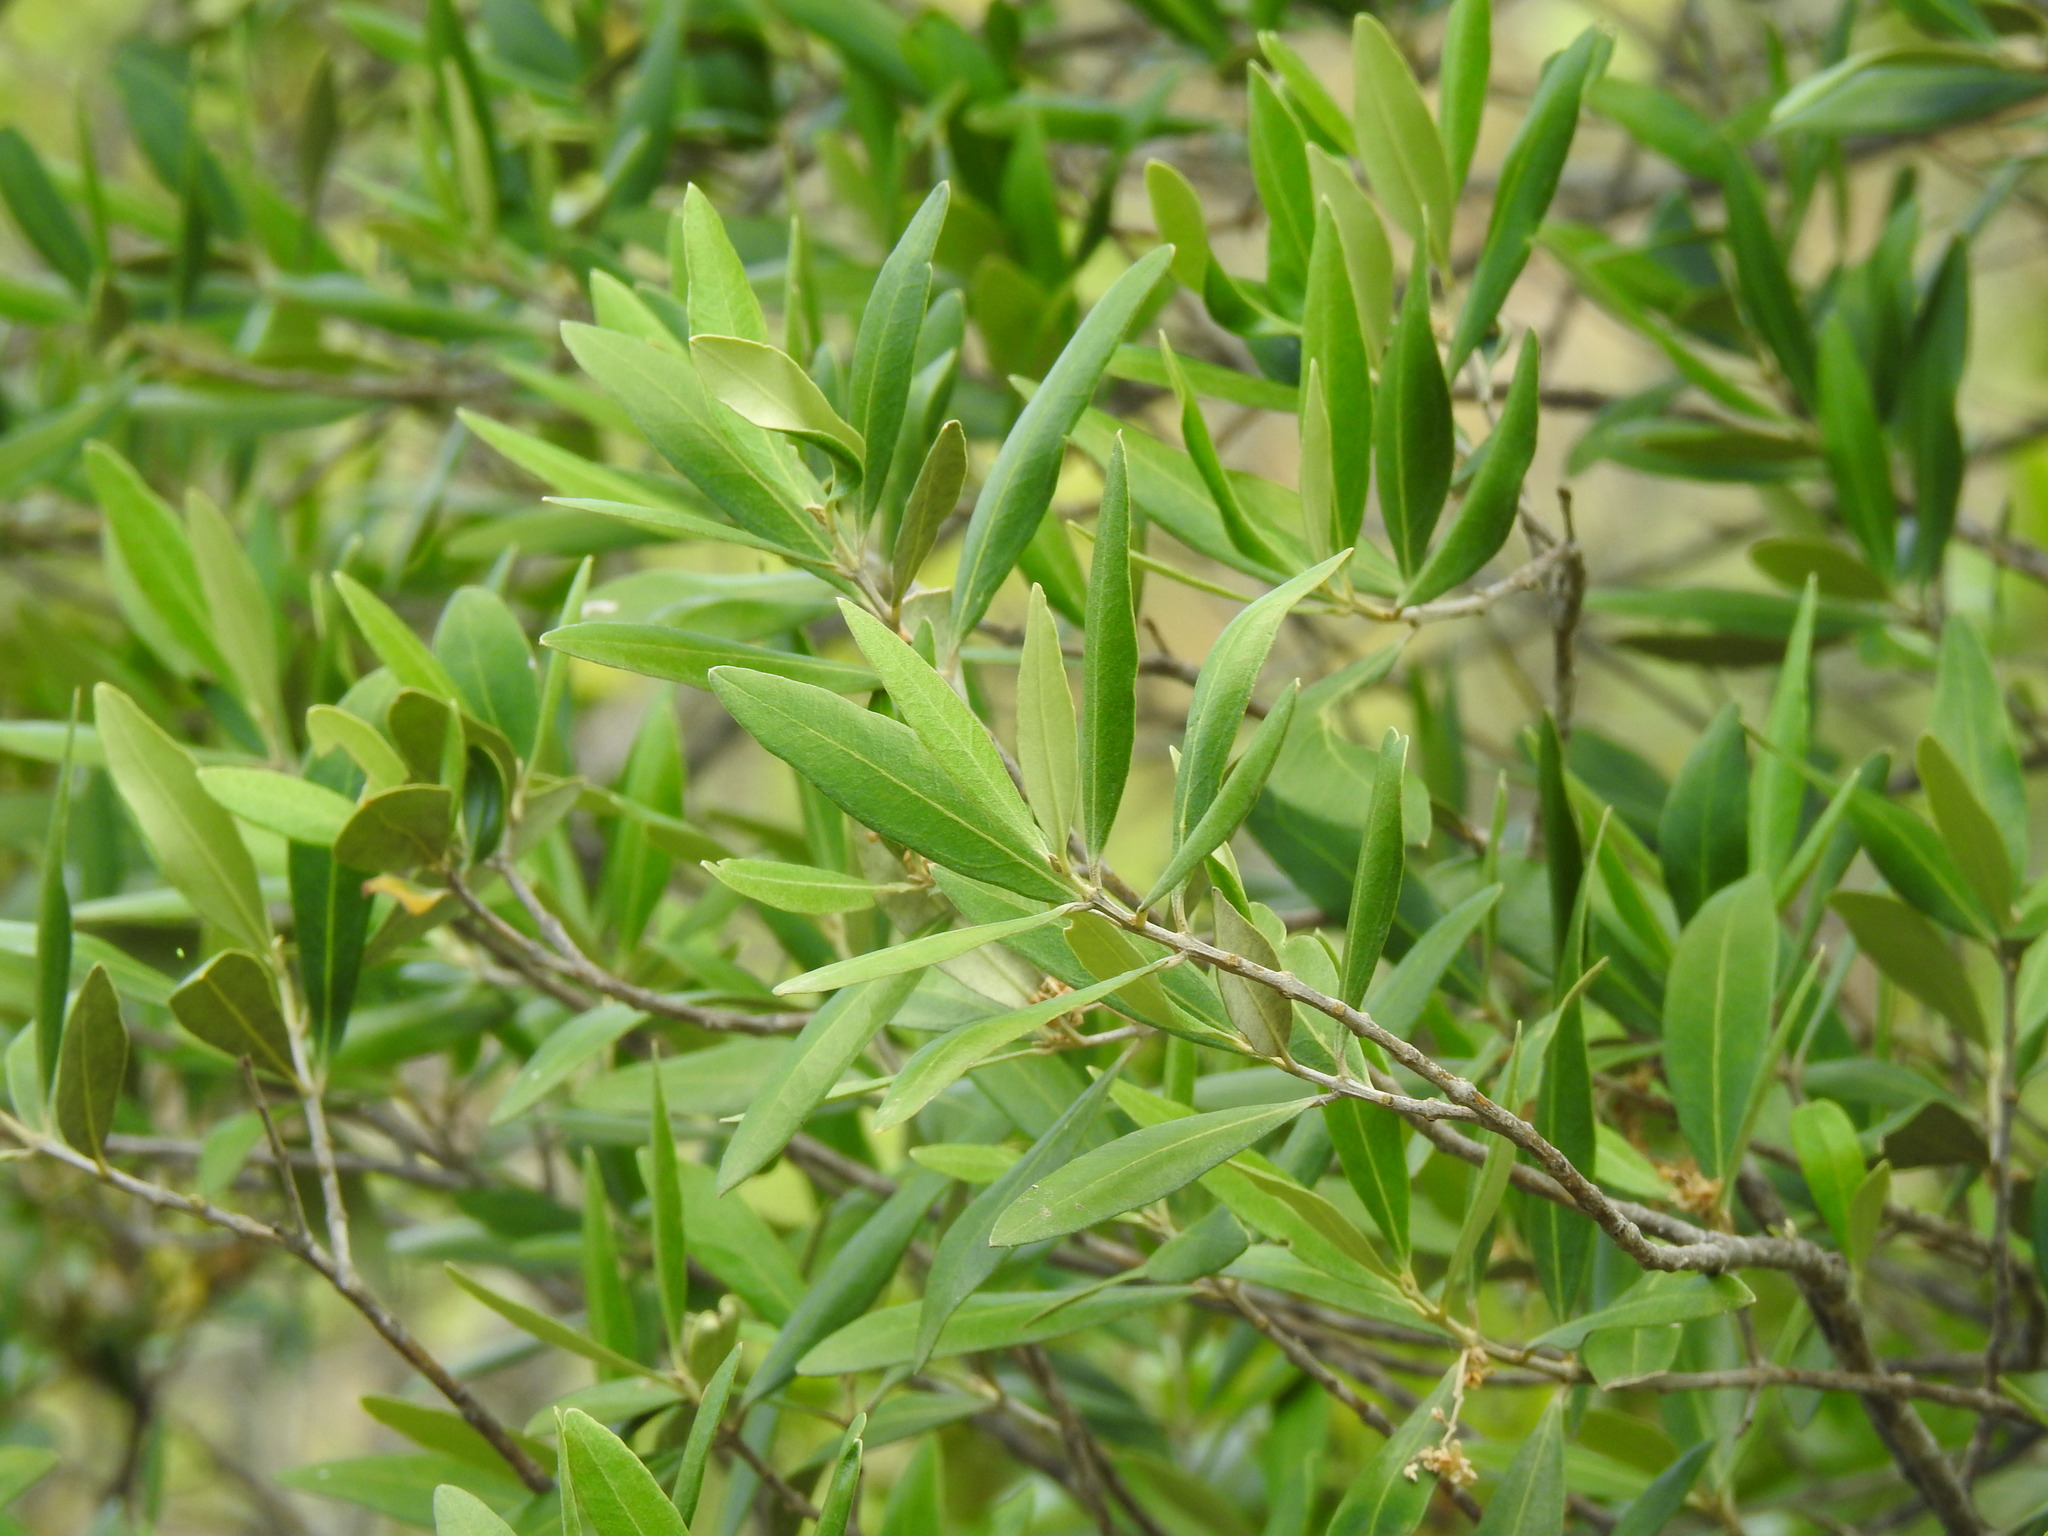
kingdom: Plantae
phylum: Tracheophyta
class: Magnoliopsida
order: Lamiales
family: Oleaceae
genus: Olea
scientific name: Olea europaea
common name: Olive
